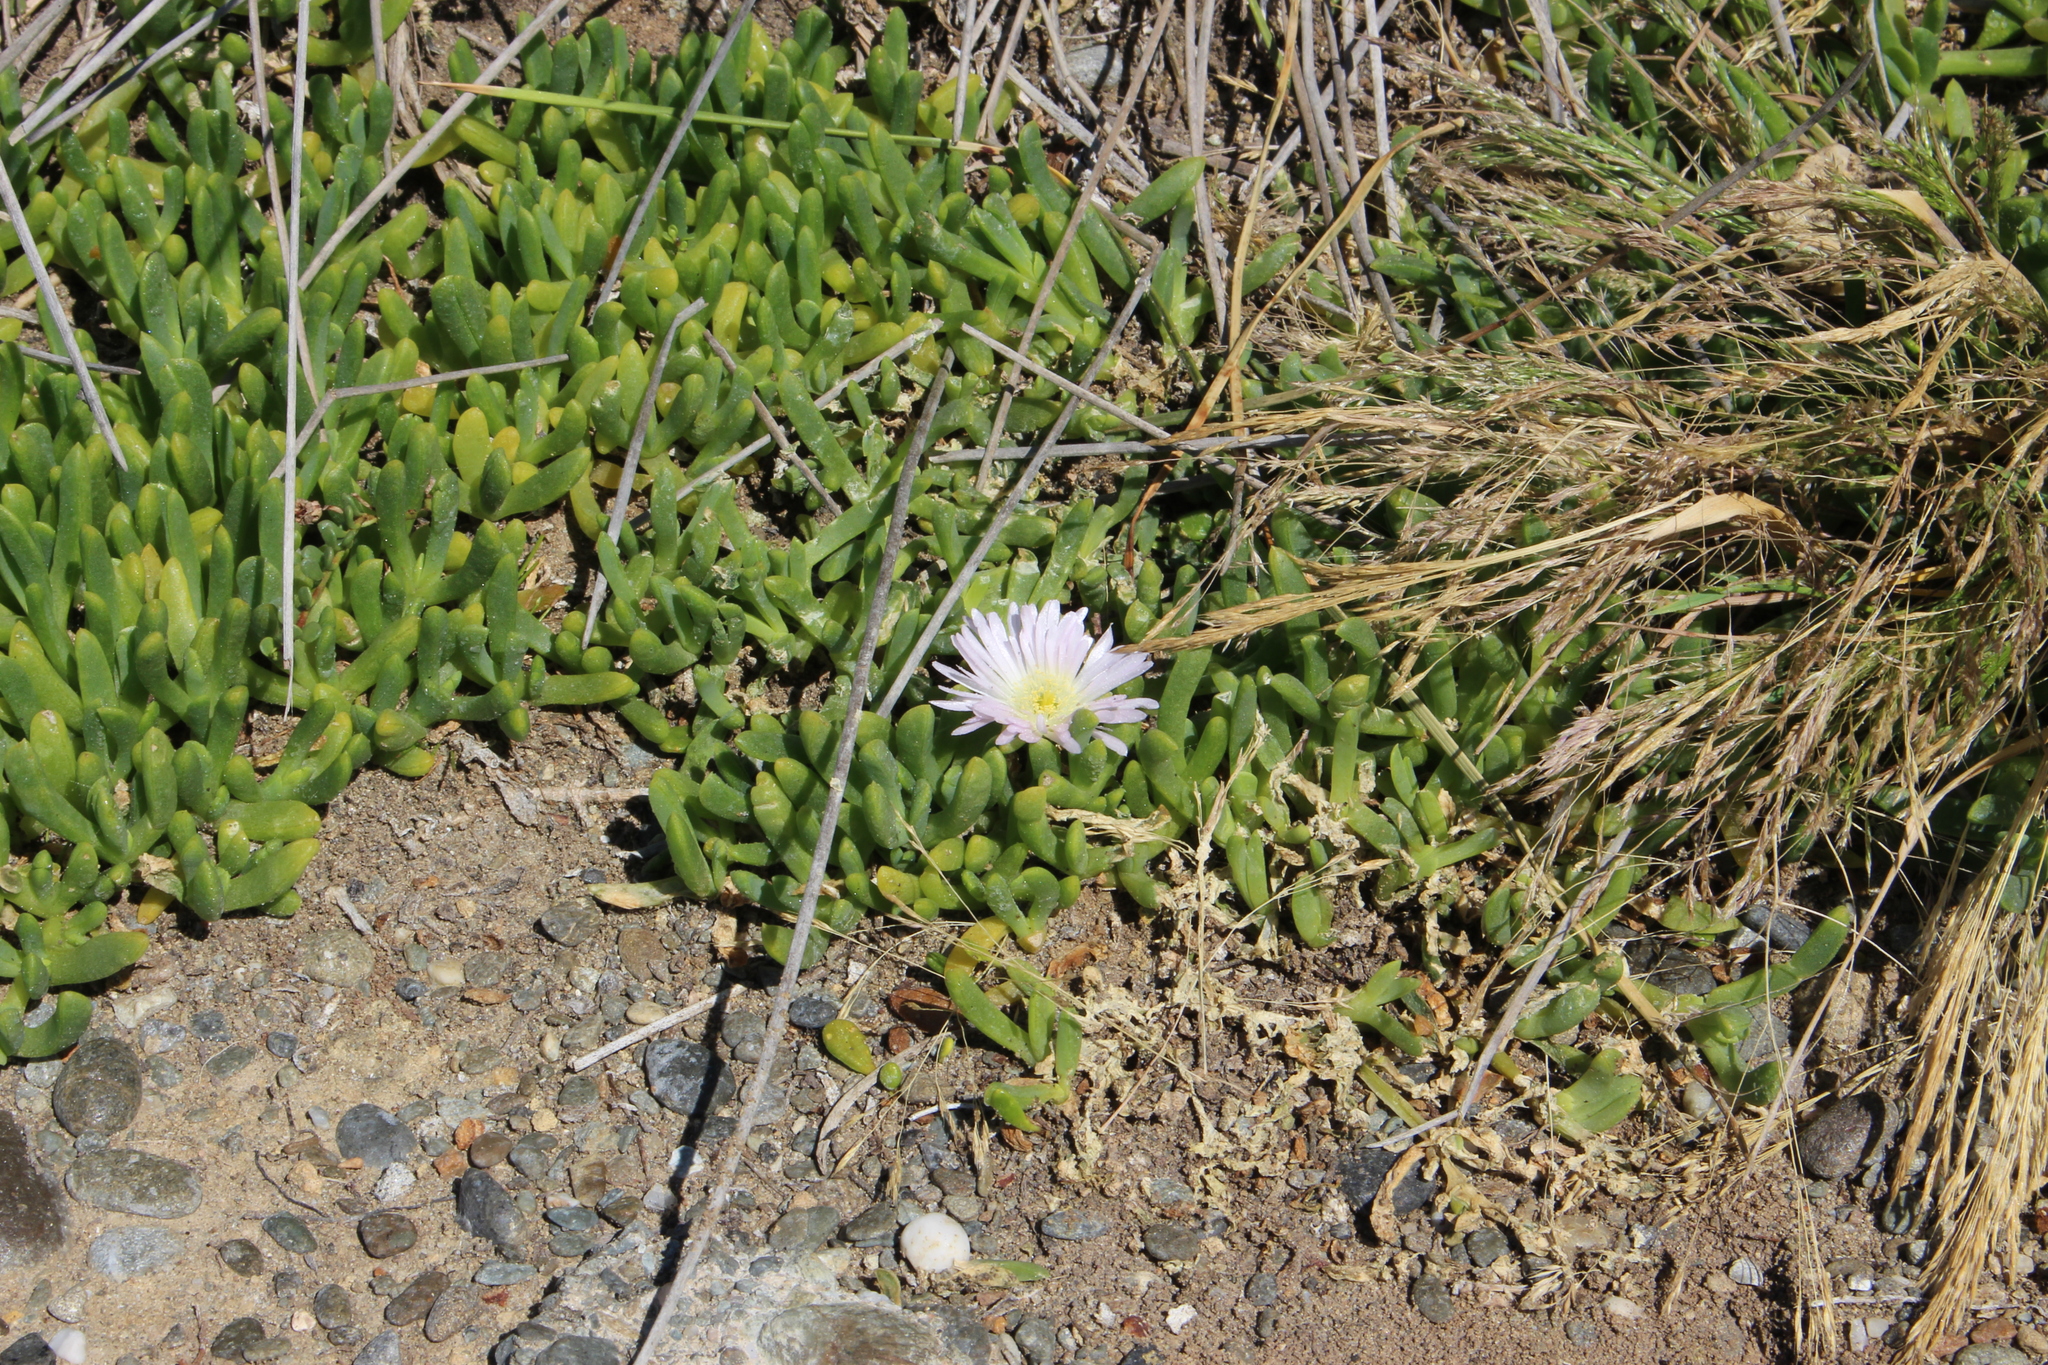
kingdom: Plantae
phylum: Tracheophyta
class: Magnoliopsida
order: Caryophyllales
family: Aizoaceae
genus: Disphyma
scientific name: Disphyma australe
